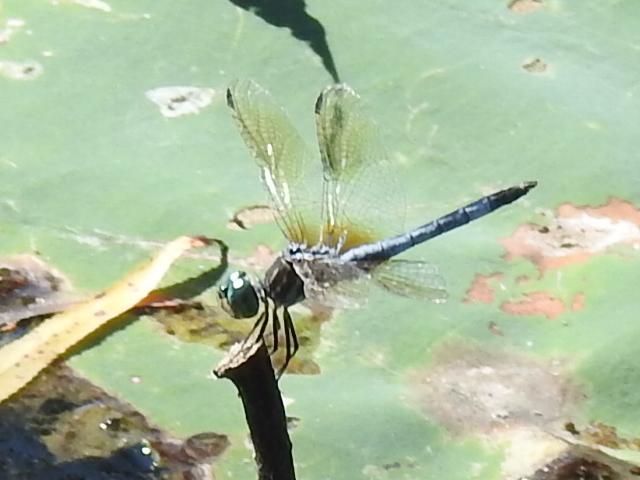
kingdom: Animalia
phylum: Arthropoda
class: Insecta
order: Odonata
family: Libellulidae
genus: Pachydiplax
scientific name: Pachydiplax longipennis
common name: Blue dasher
